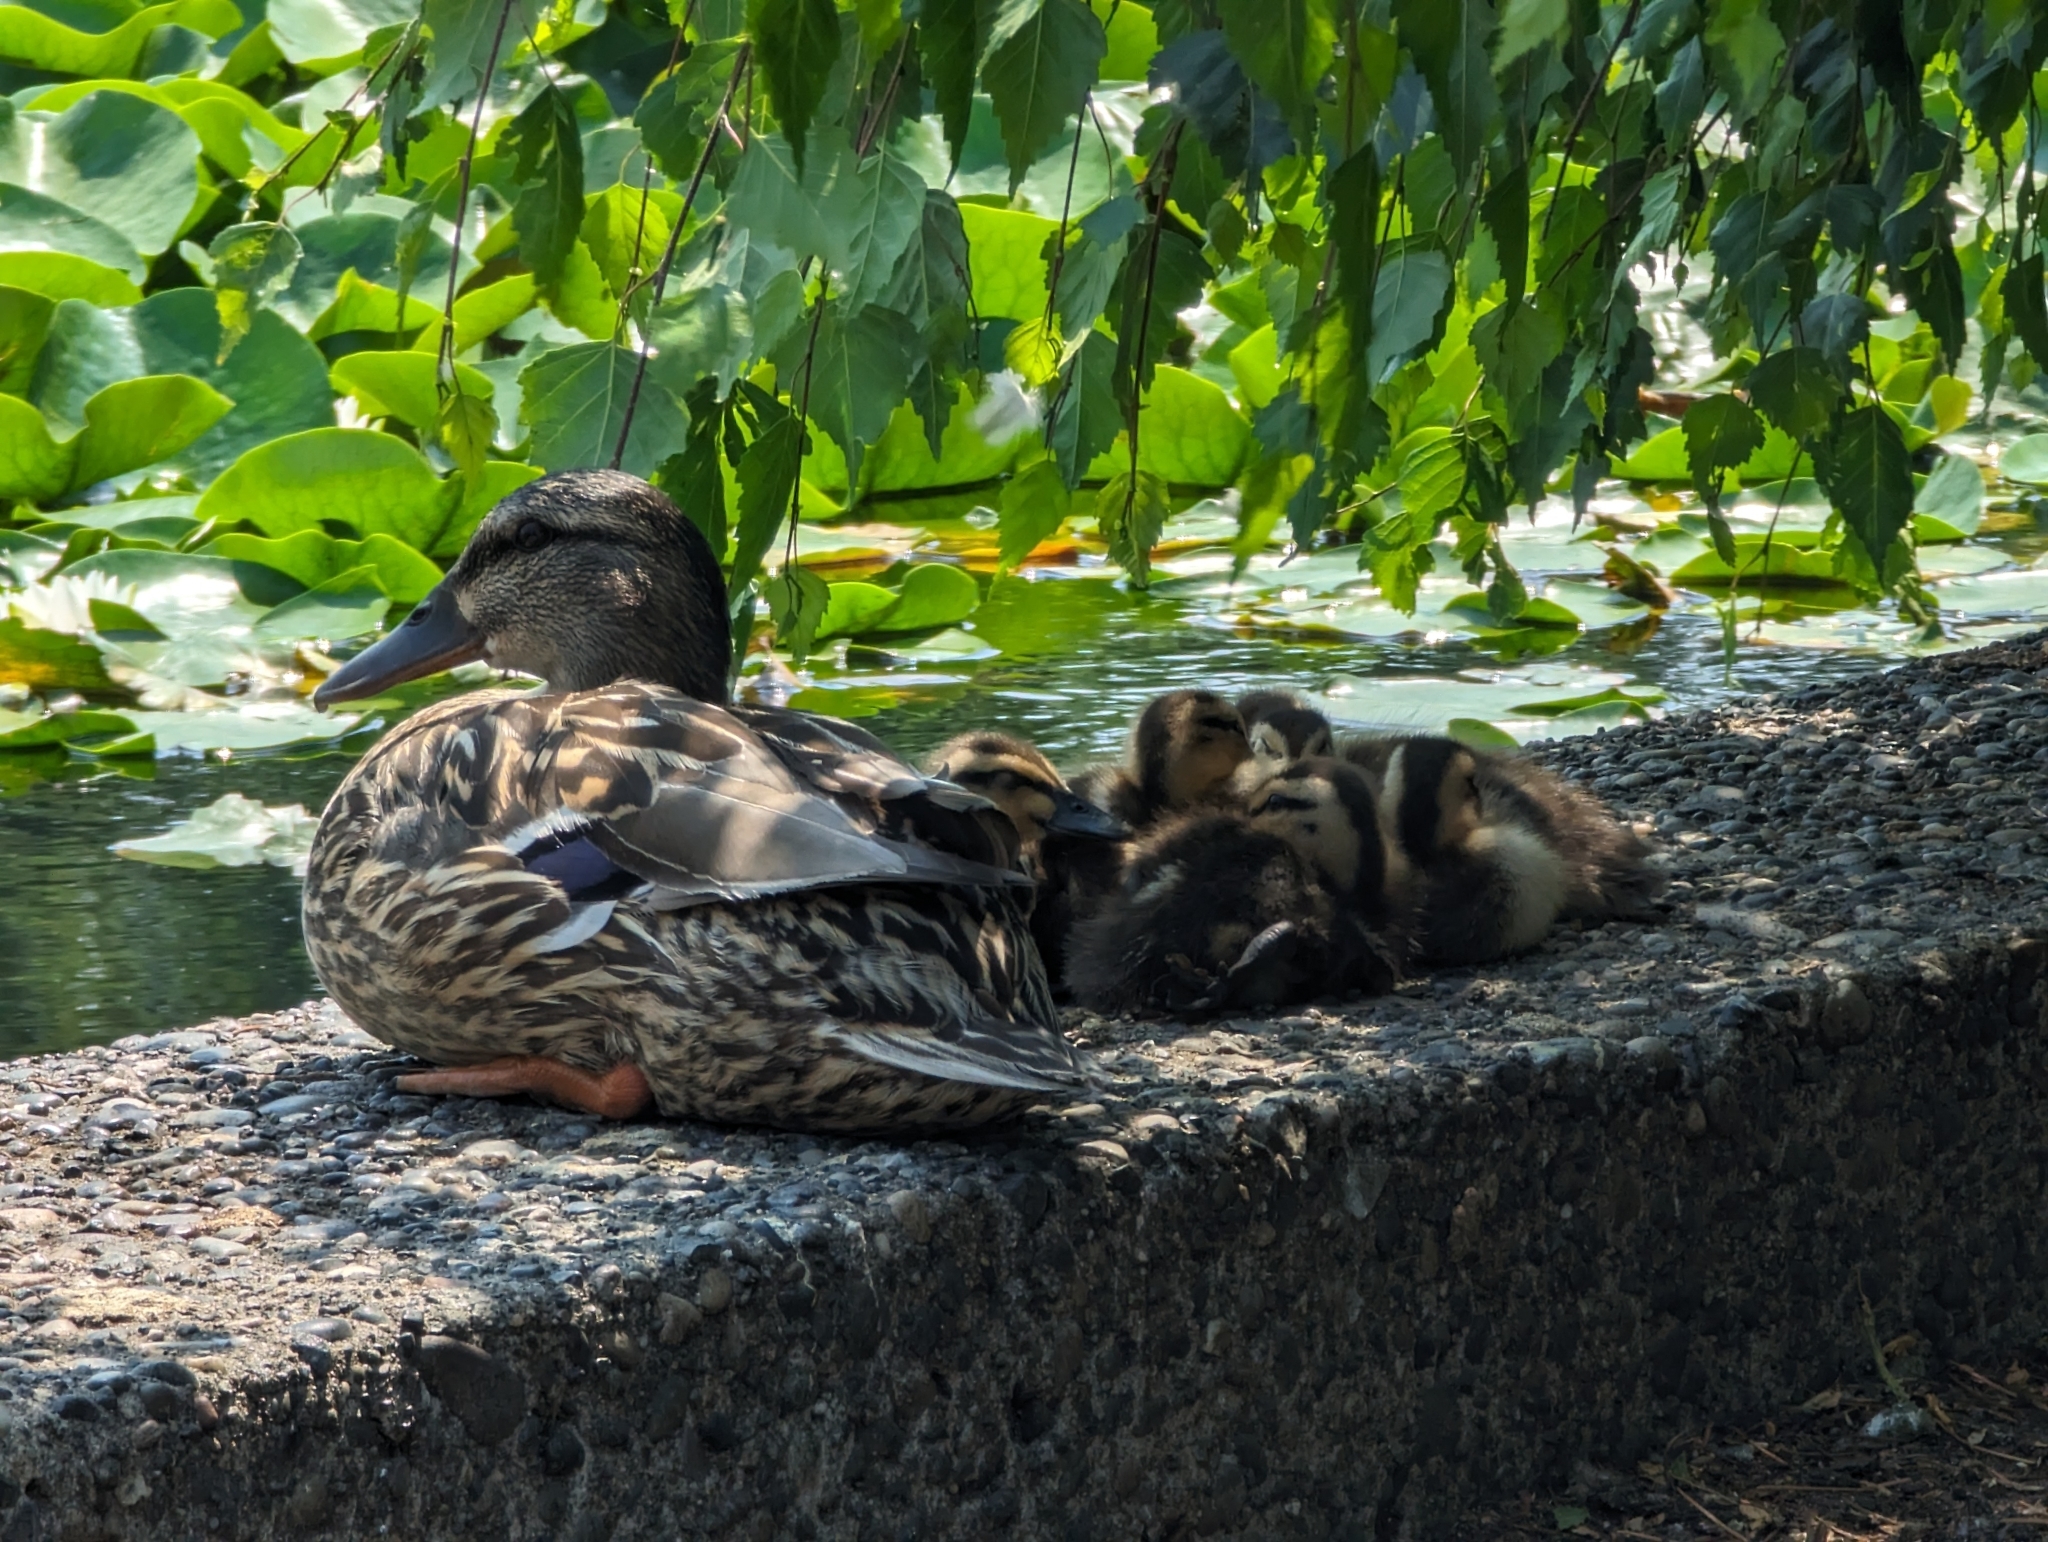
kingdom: Animalia
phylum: Chordata
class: Aves
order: Anseriformes
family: Anatidae
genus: Anas
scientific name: Anas platyrhynchos
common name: Mallard
